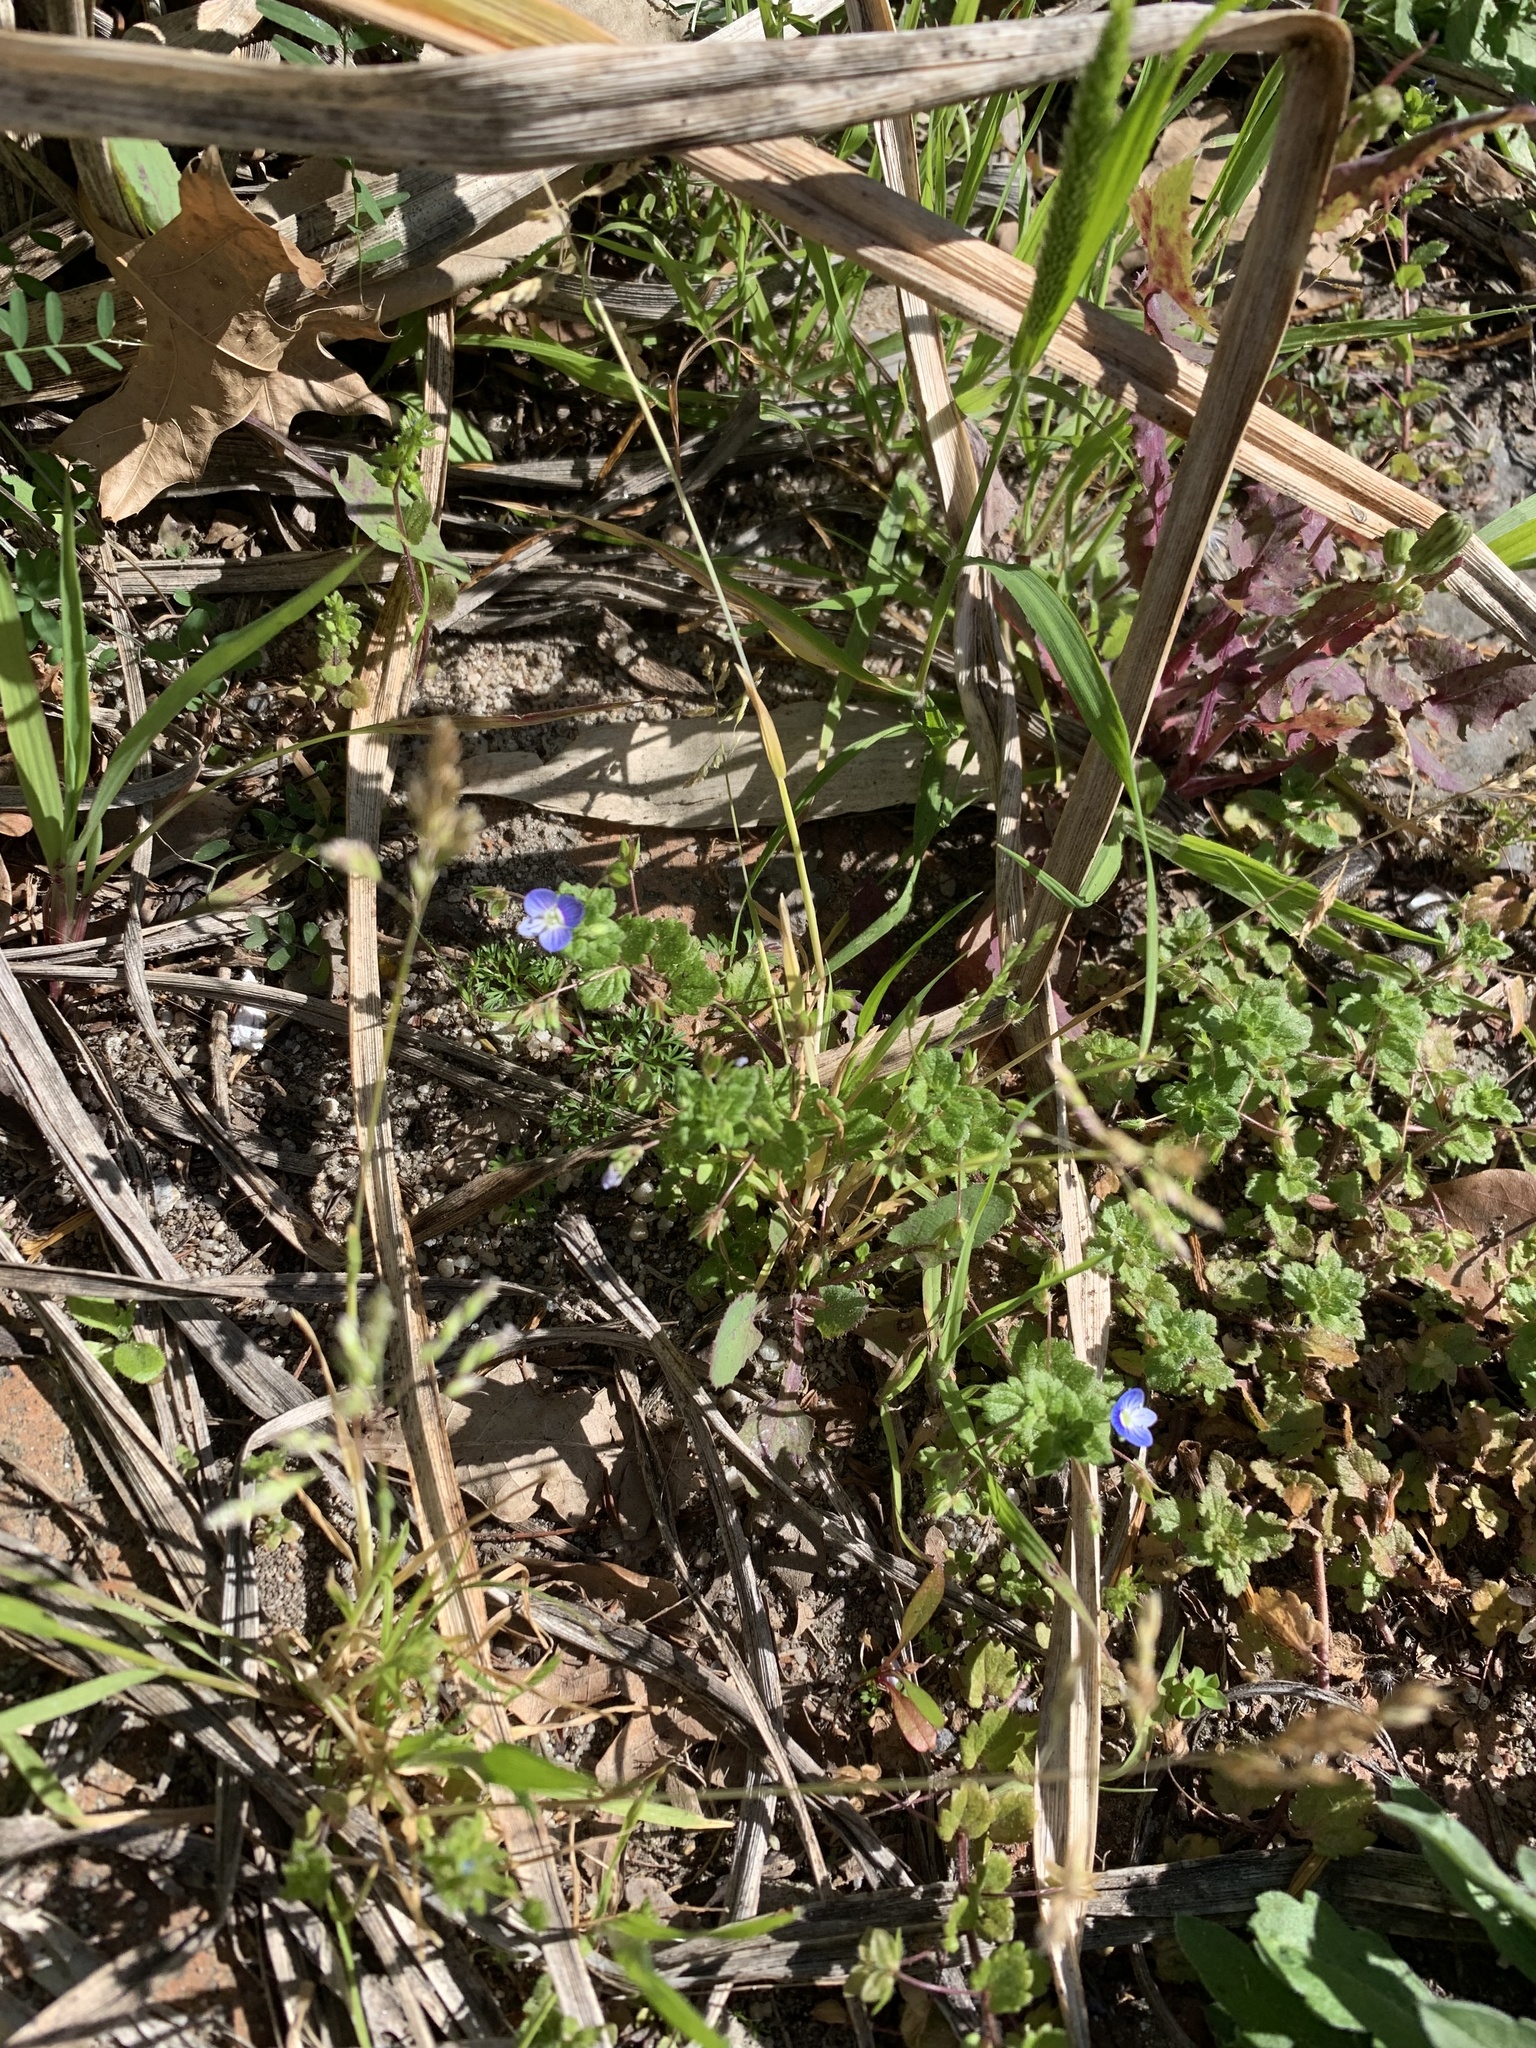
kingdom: Plantae
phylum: Tracheophyta
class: Magnoliopsida
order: Lamiales
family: Plantaginaceae
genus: Veronica
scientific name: Veronica persica
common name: Common field-speedwell
